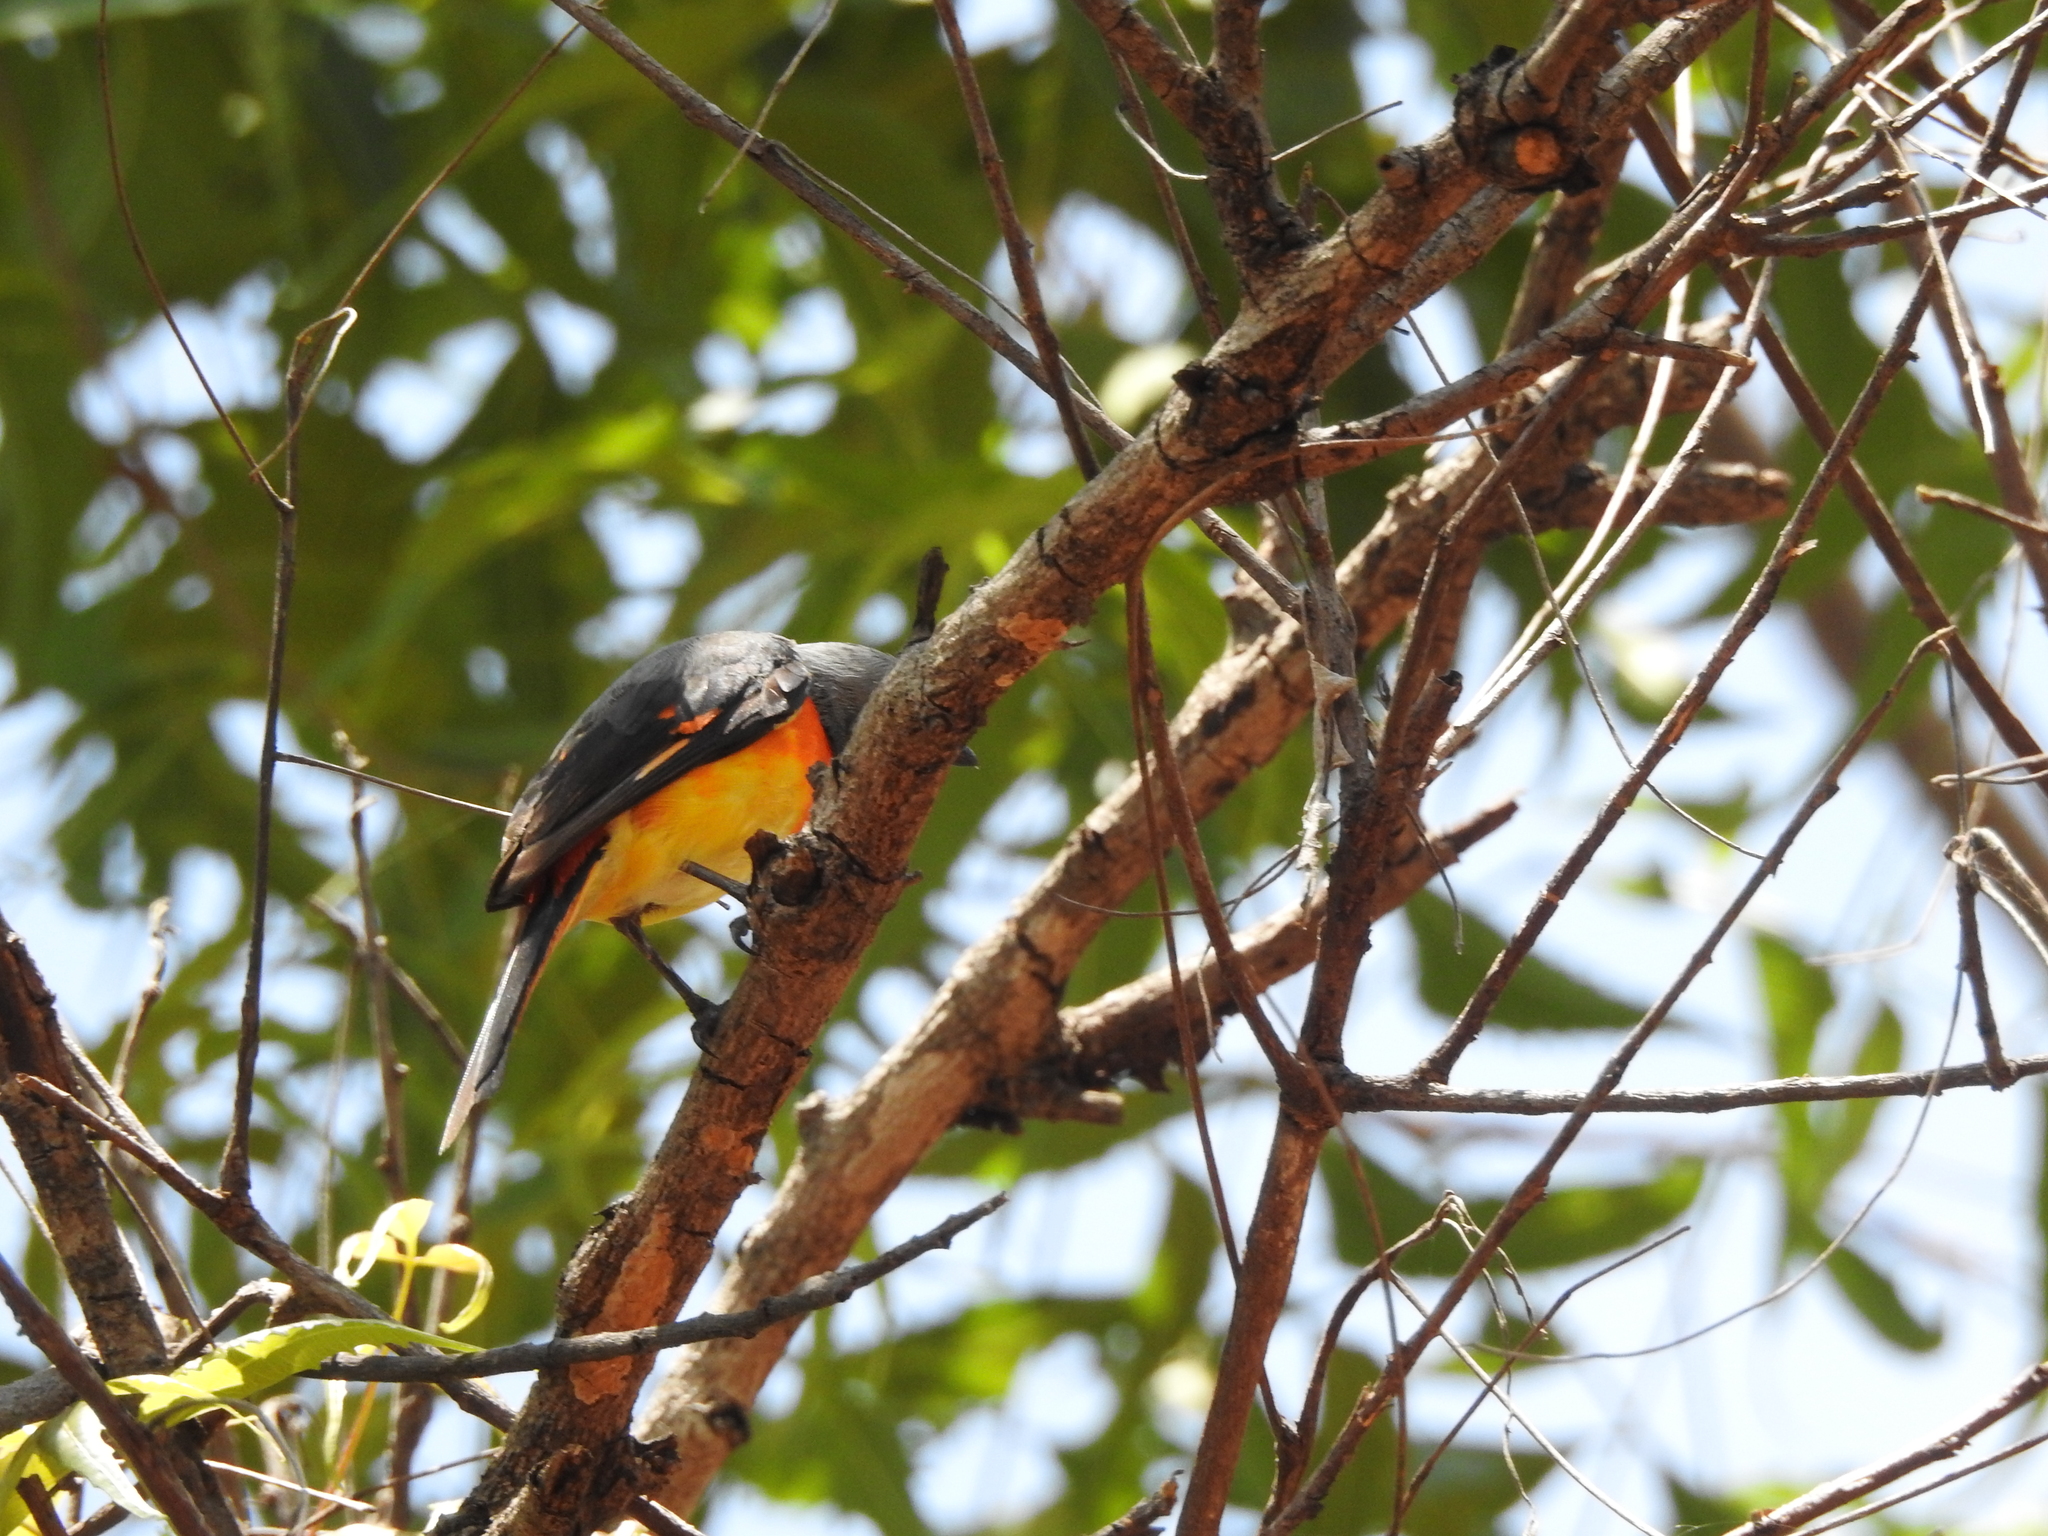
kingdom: Animalia
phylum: Chordata
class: Aves
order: Passeriformes
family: Campephagidae
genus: Pericrocotus
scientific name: Pericrocotus cinnamomeus
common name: Small minivet
